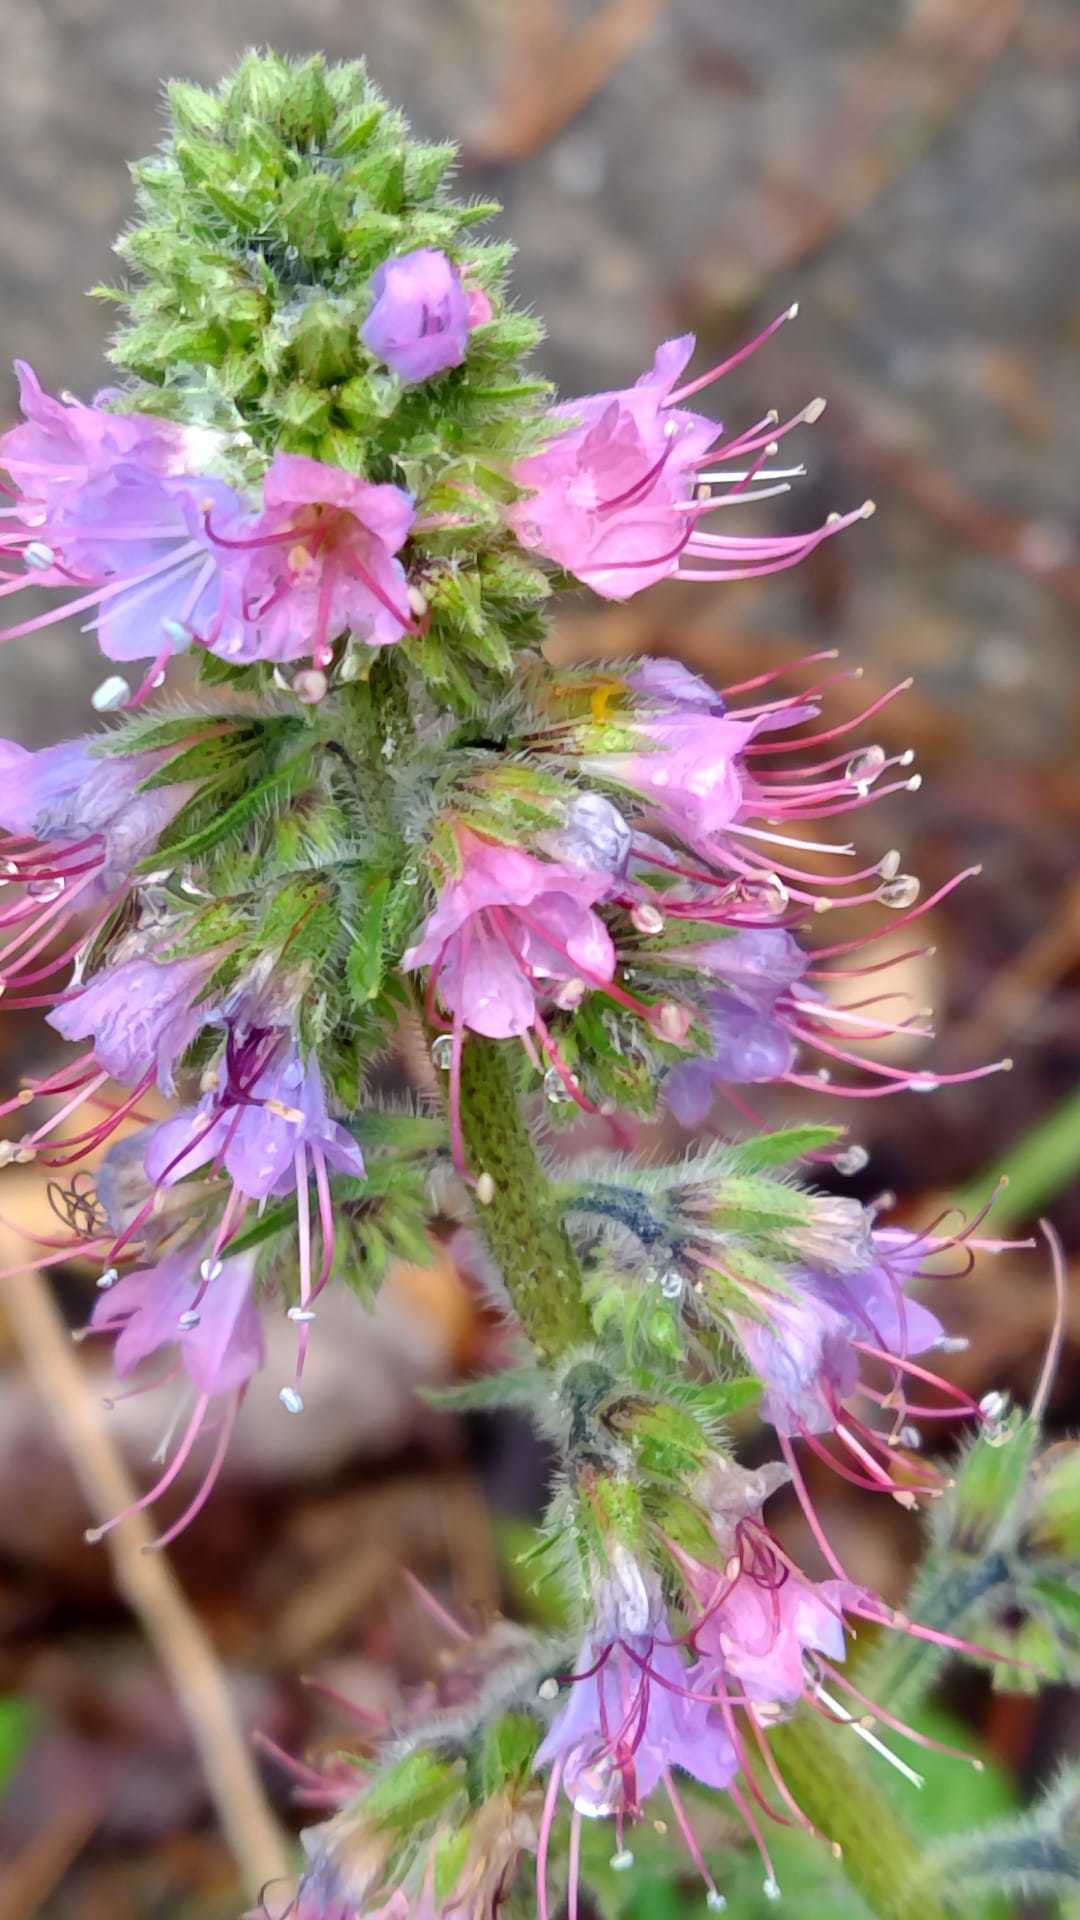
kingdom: Plantae
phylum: Tracheophyta
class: Magnoliopsida
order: Boraginales
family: Boraginaceae
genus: Echium
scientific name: Echium lusitanicum
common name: Violet-vein viper's bugloss
